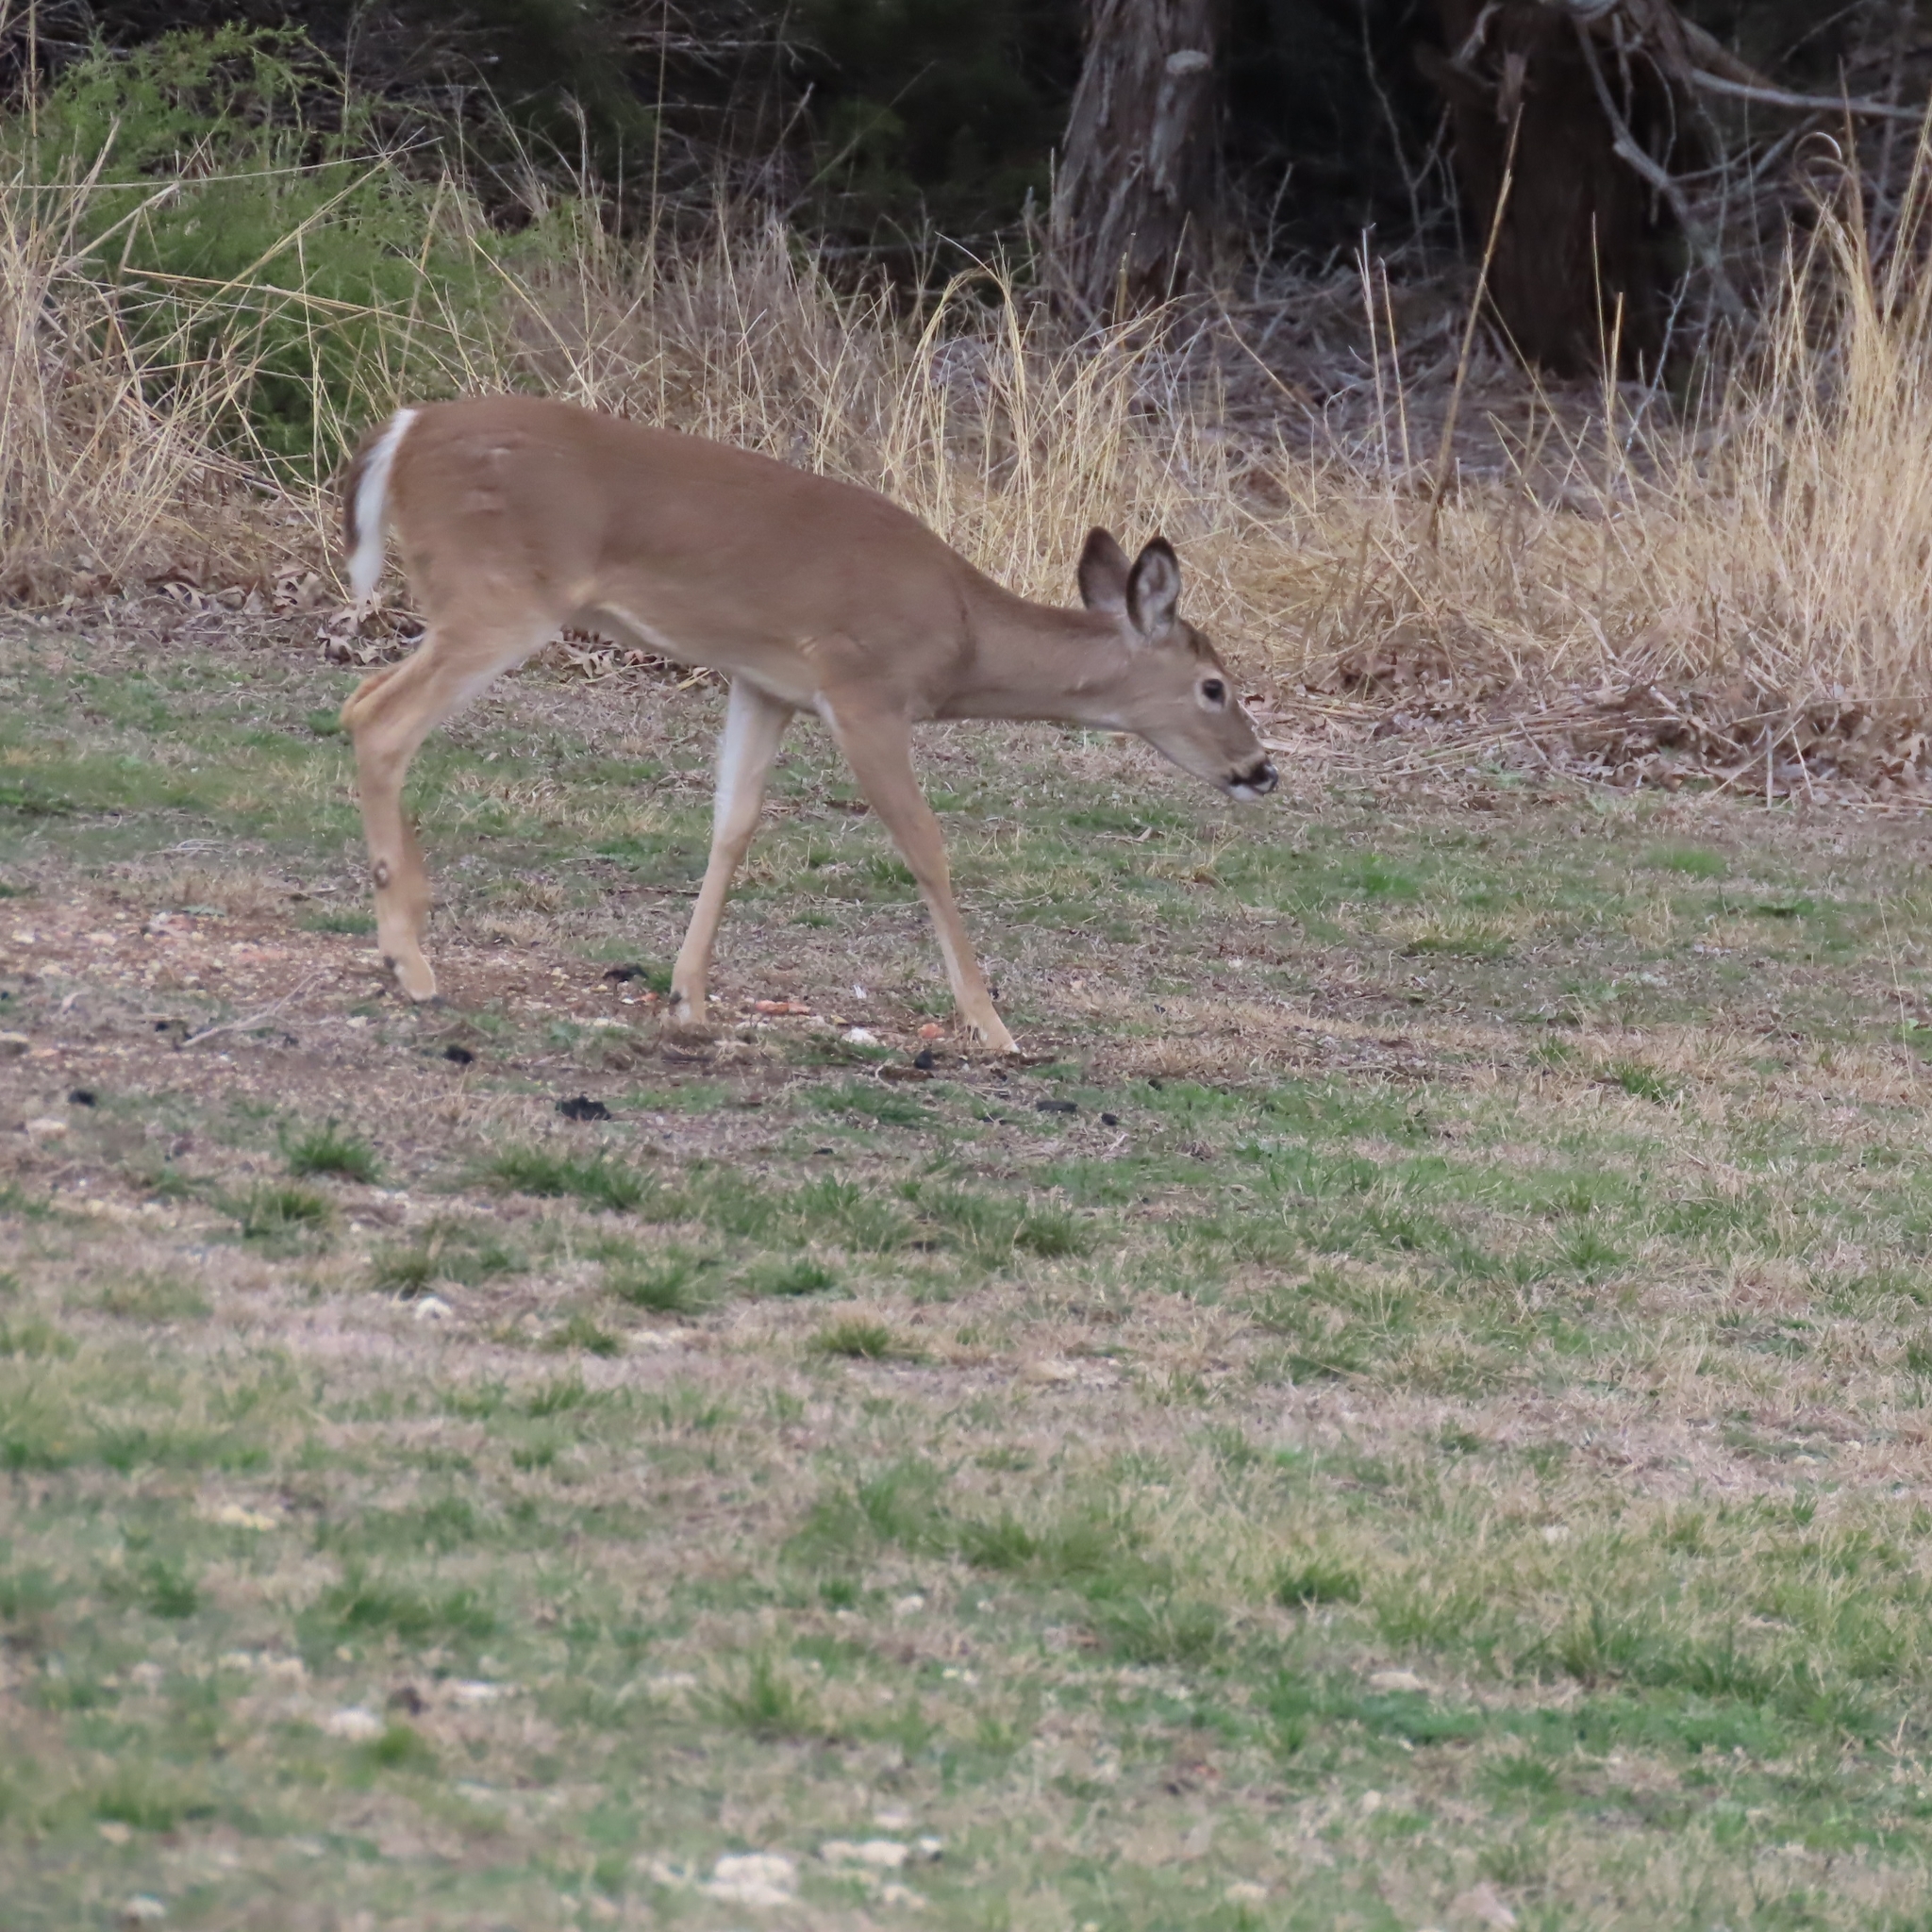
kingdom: Animalia
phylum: Chordata
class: Mammalia
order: Artiodactyla
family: Cervidae
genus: Odocoileus
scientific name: Odocoileus virginianus
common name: White-tailed deer
